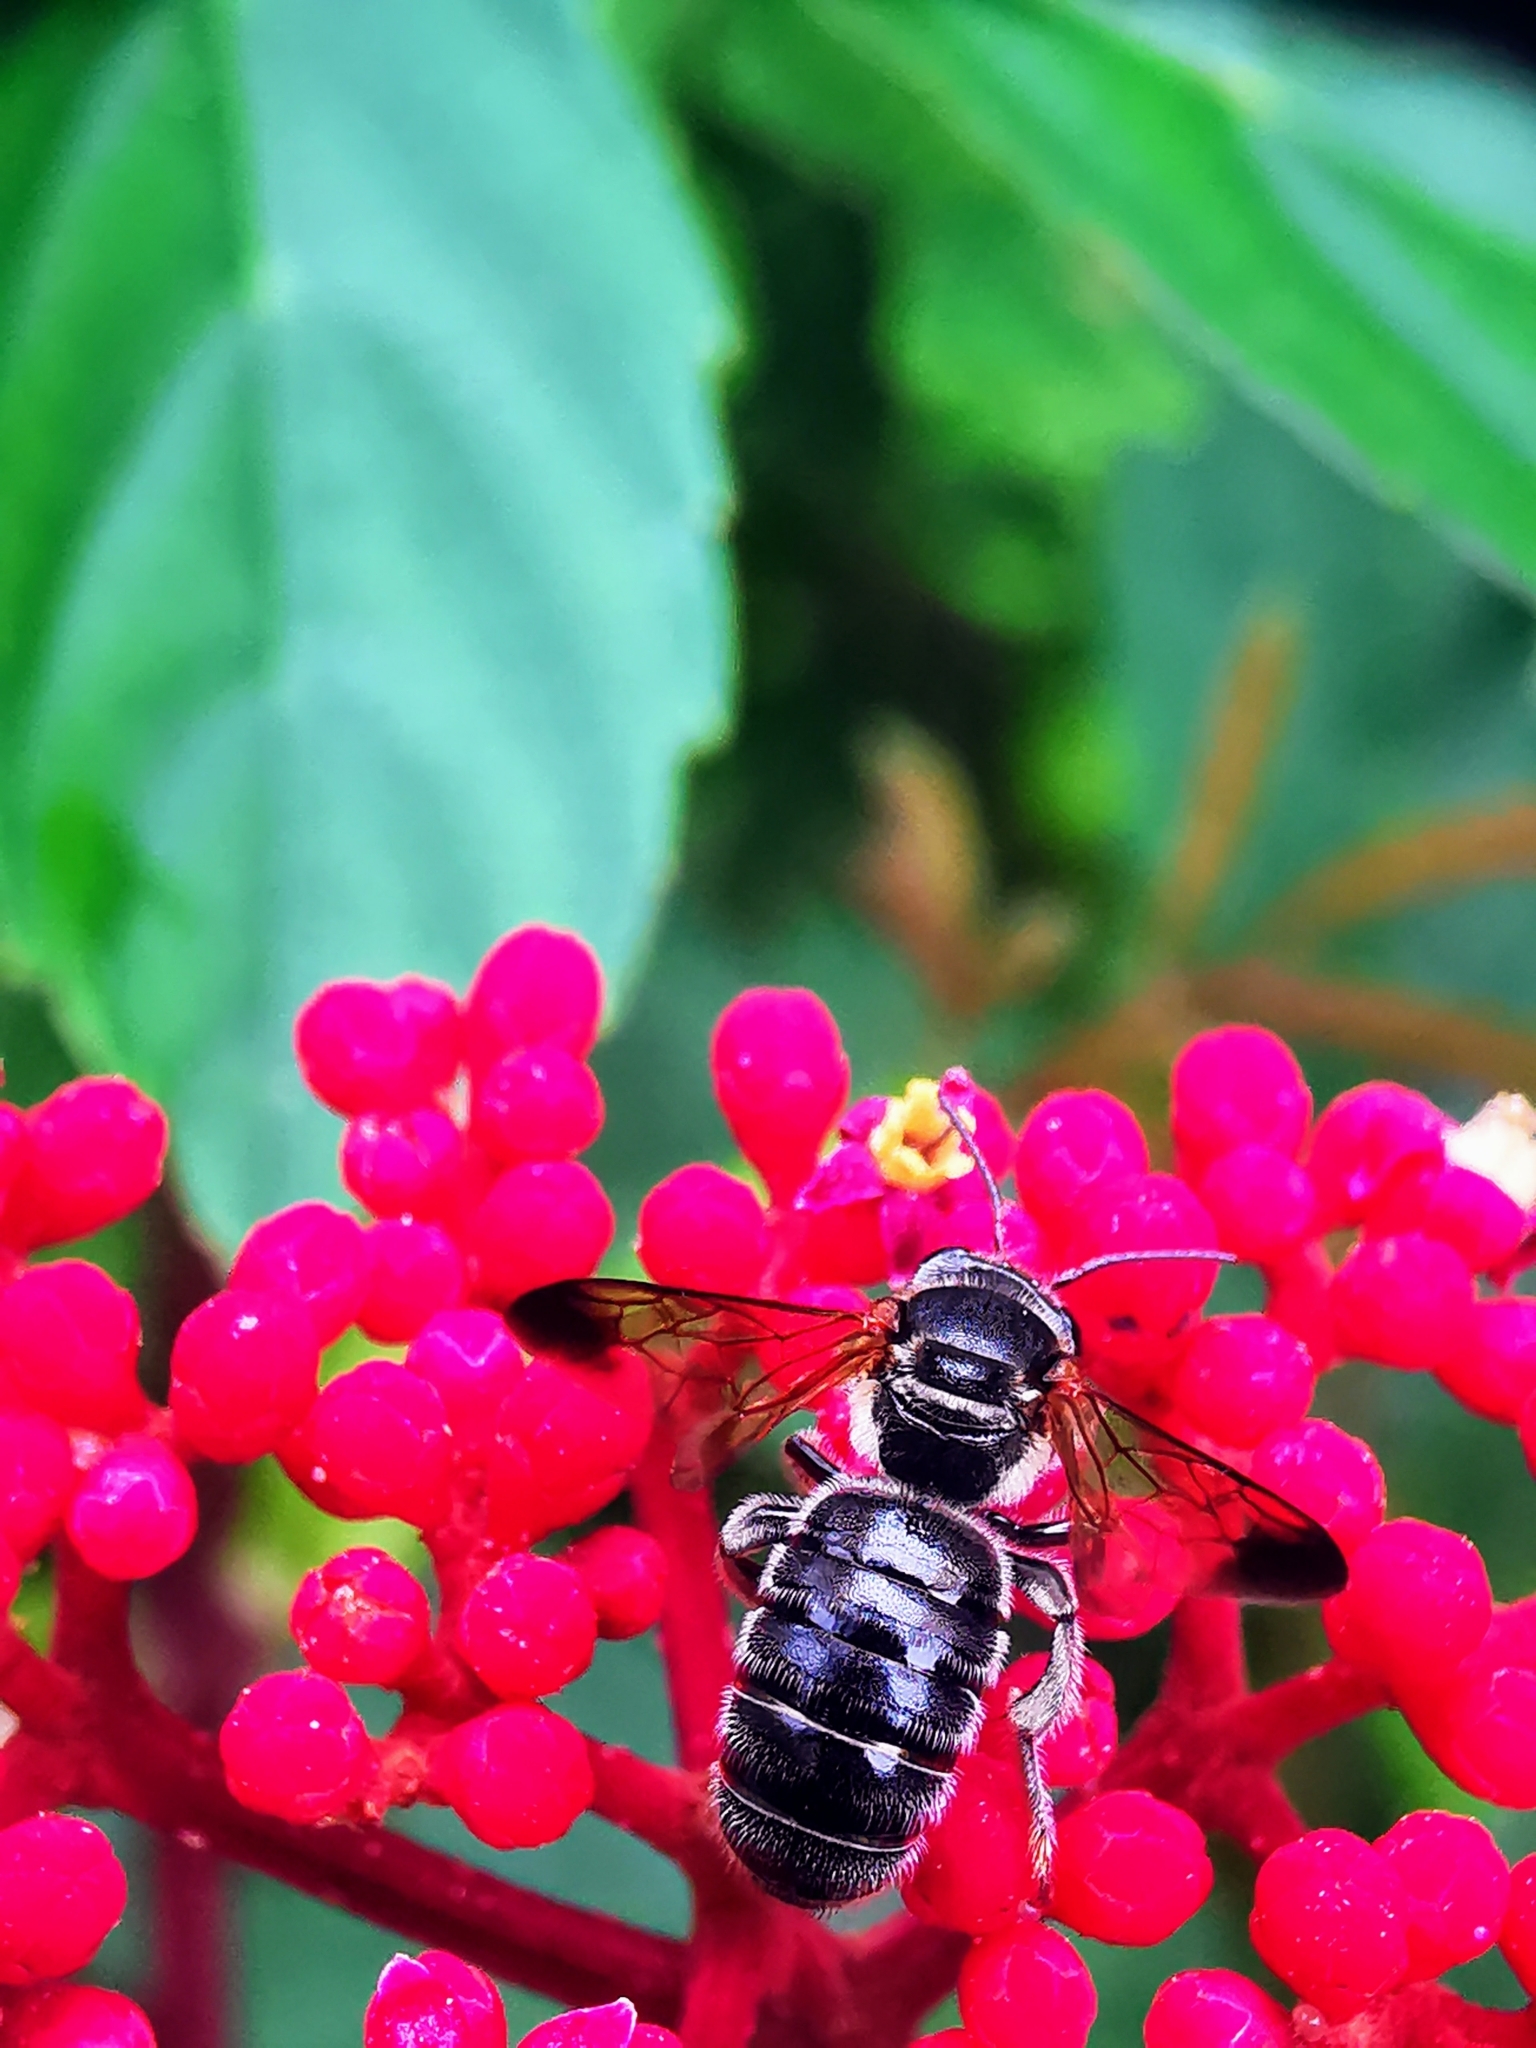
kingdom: Animalia
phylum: Arthropoda
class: Insecta
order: Hymenoptera
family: Halictidae
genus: Nomia
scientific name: Nomia fuscipennis
